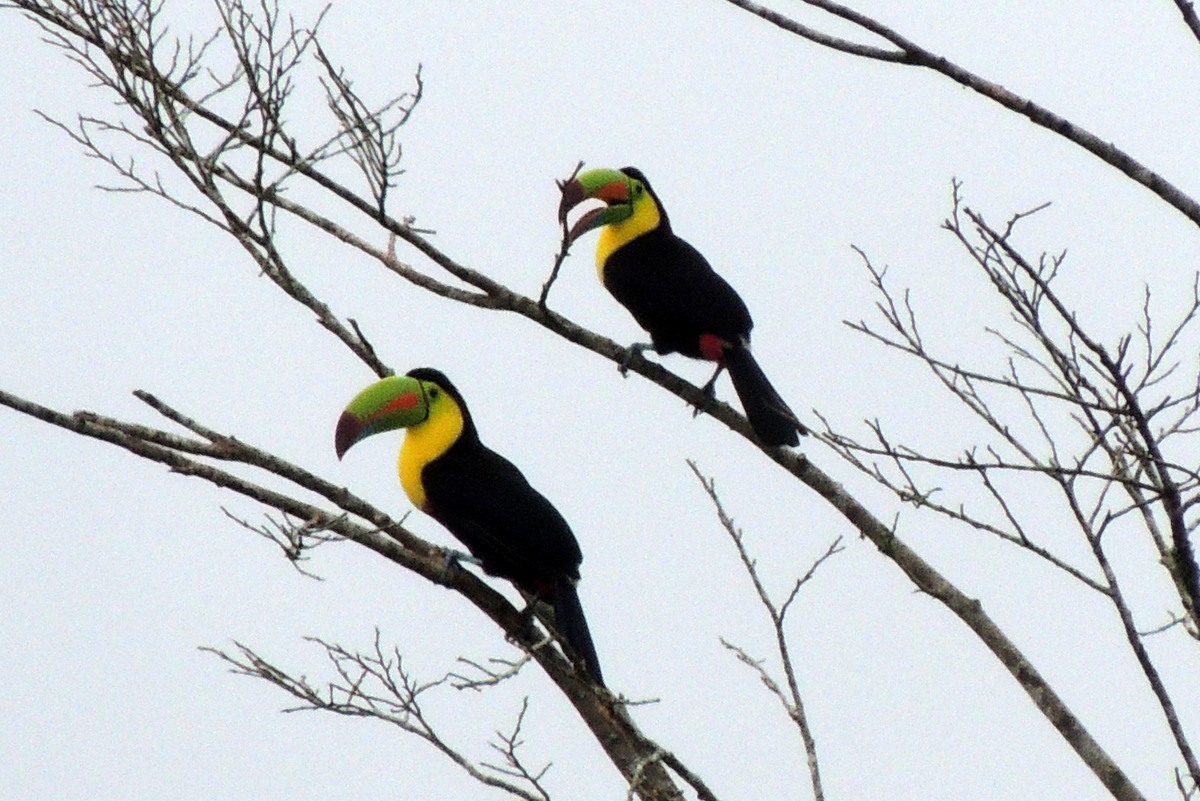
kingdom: Animalia
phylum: Chordata
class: Aves
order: Piciformes
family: Ramphastidae
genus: Ramphastos
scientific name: Ramphastos sulfuratus
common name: Keel-billed toucan
